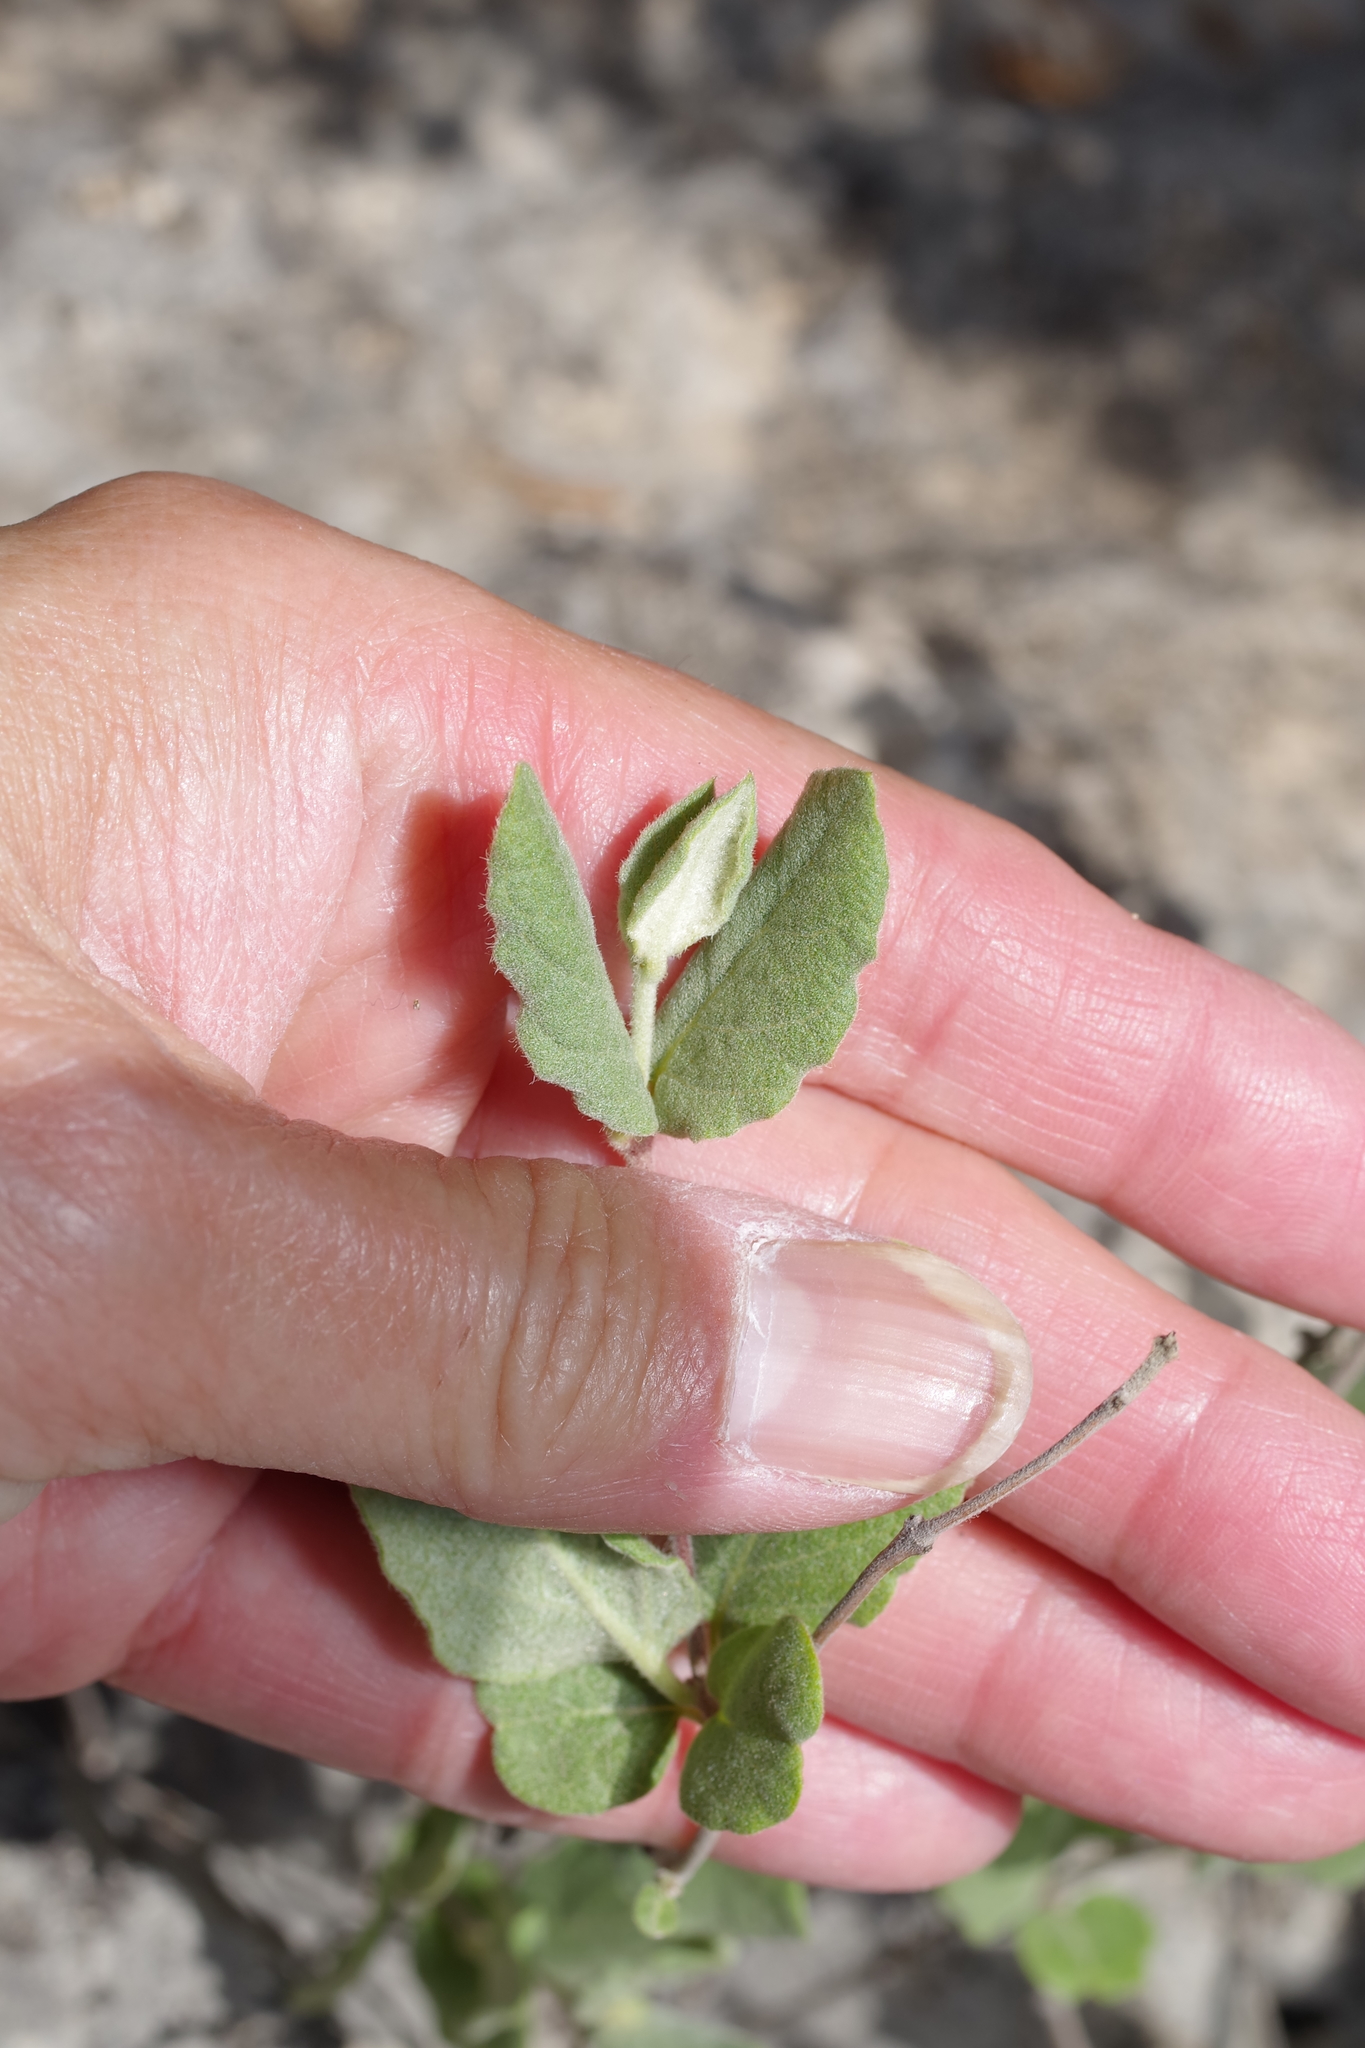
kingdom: Plantae
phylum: Tracheophyta
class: Magnoliopsida
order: Gentianales
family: Apocynaceae
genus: Mandevilla
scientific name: Mandevilla macrosiphon
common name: Plateau rocktrumpet
